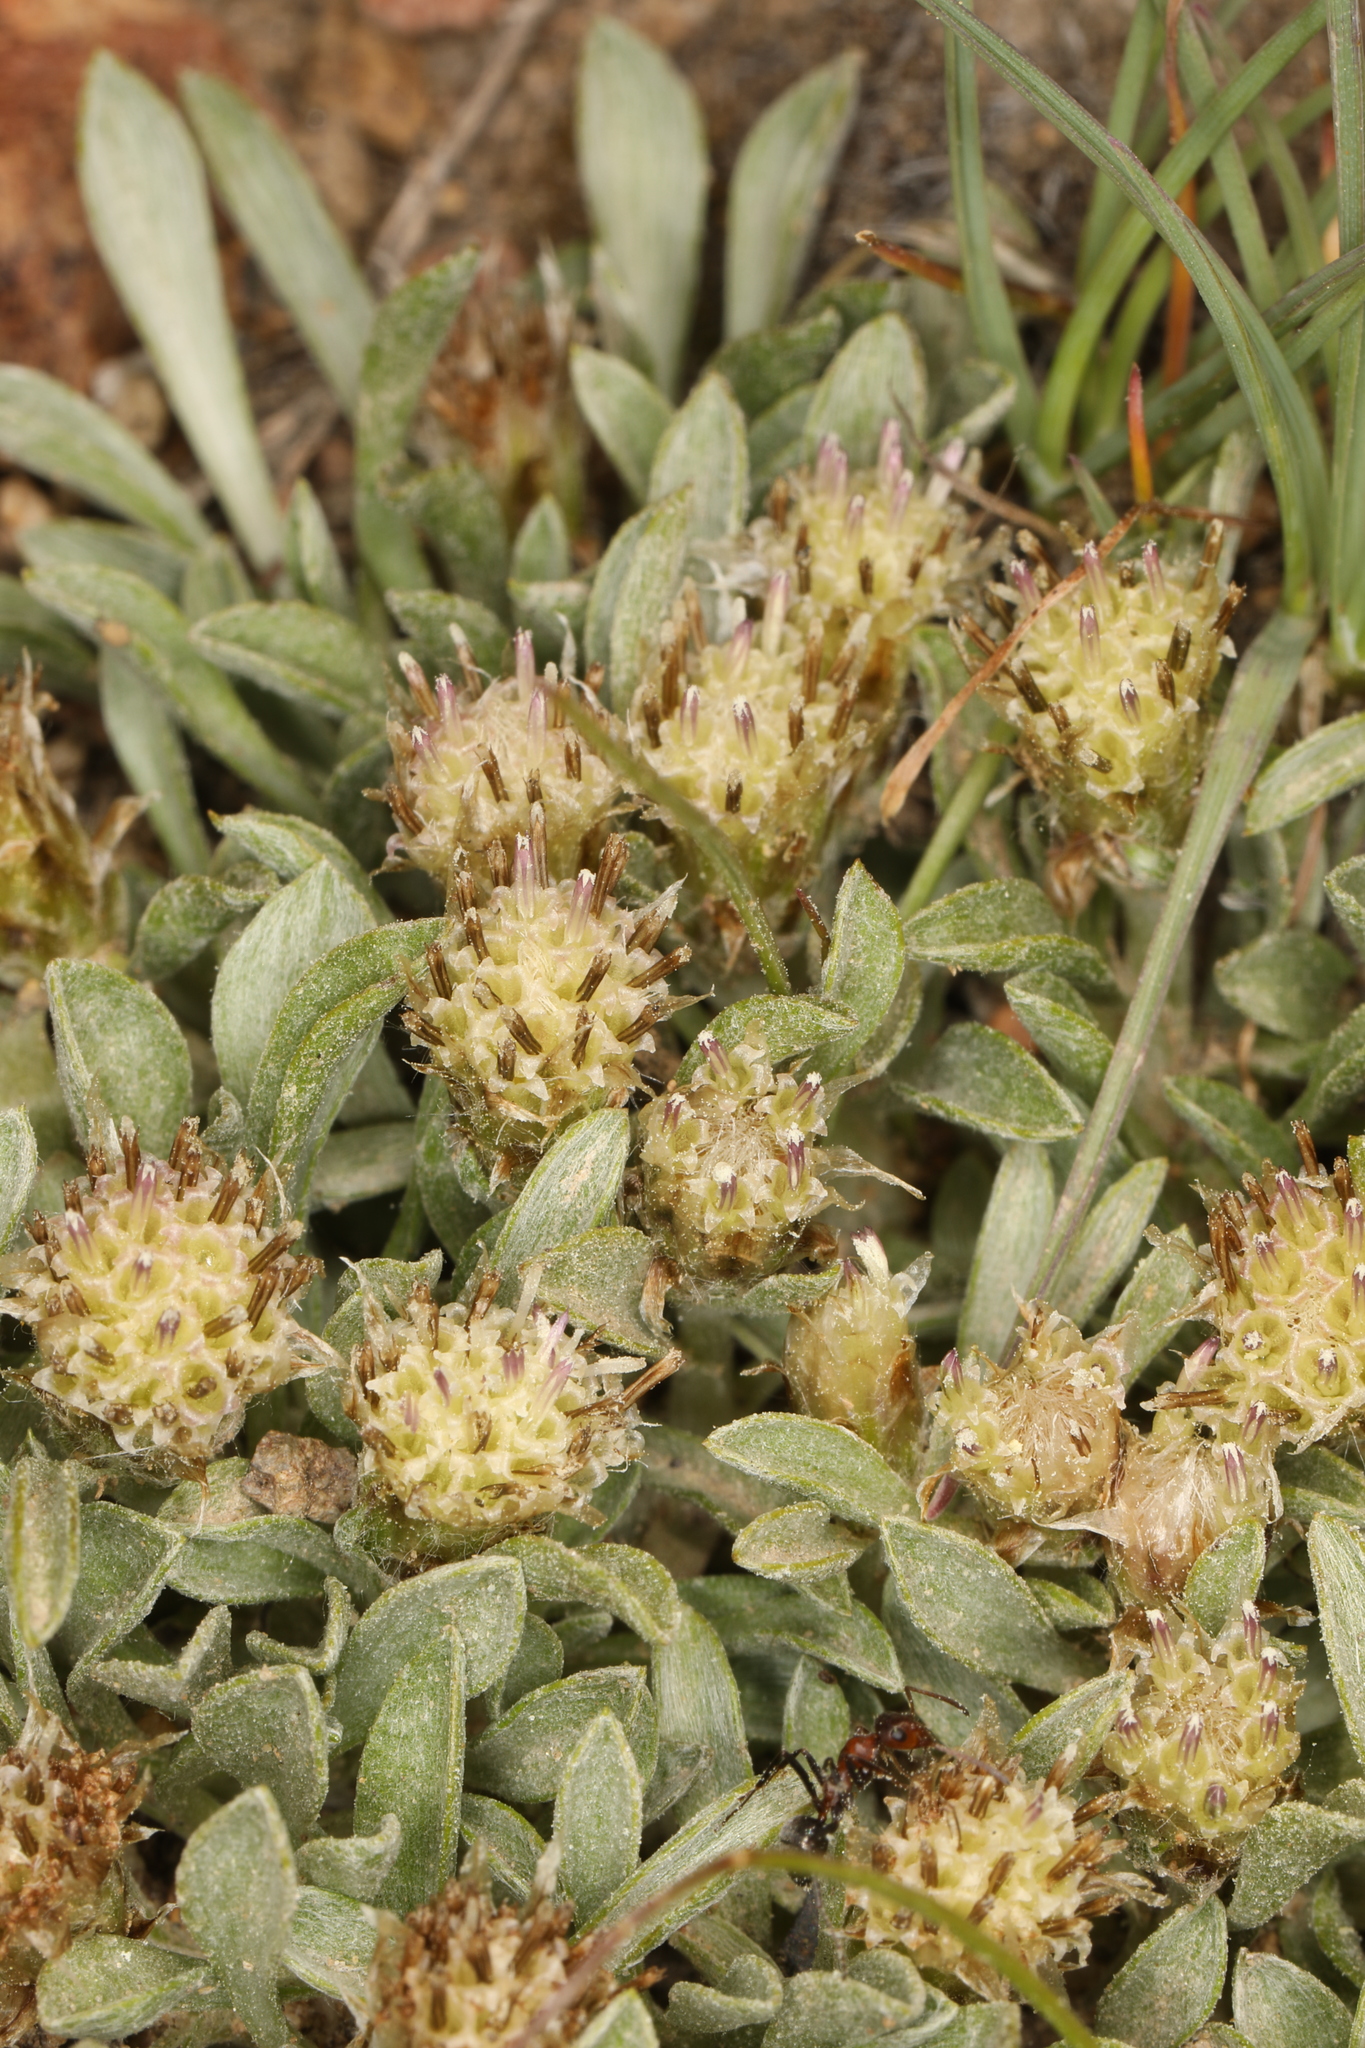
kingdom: Plantae
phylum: Tracheophyta
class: Magnoliopsida
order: Asterales
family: Asteraceae
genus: Antennaria
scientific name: Antennaria dimorpha
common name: Cushion pussytoes
